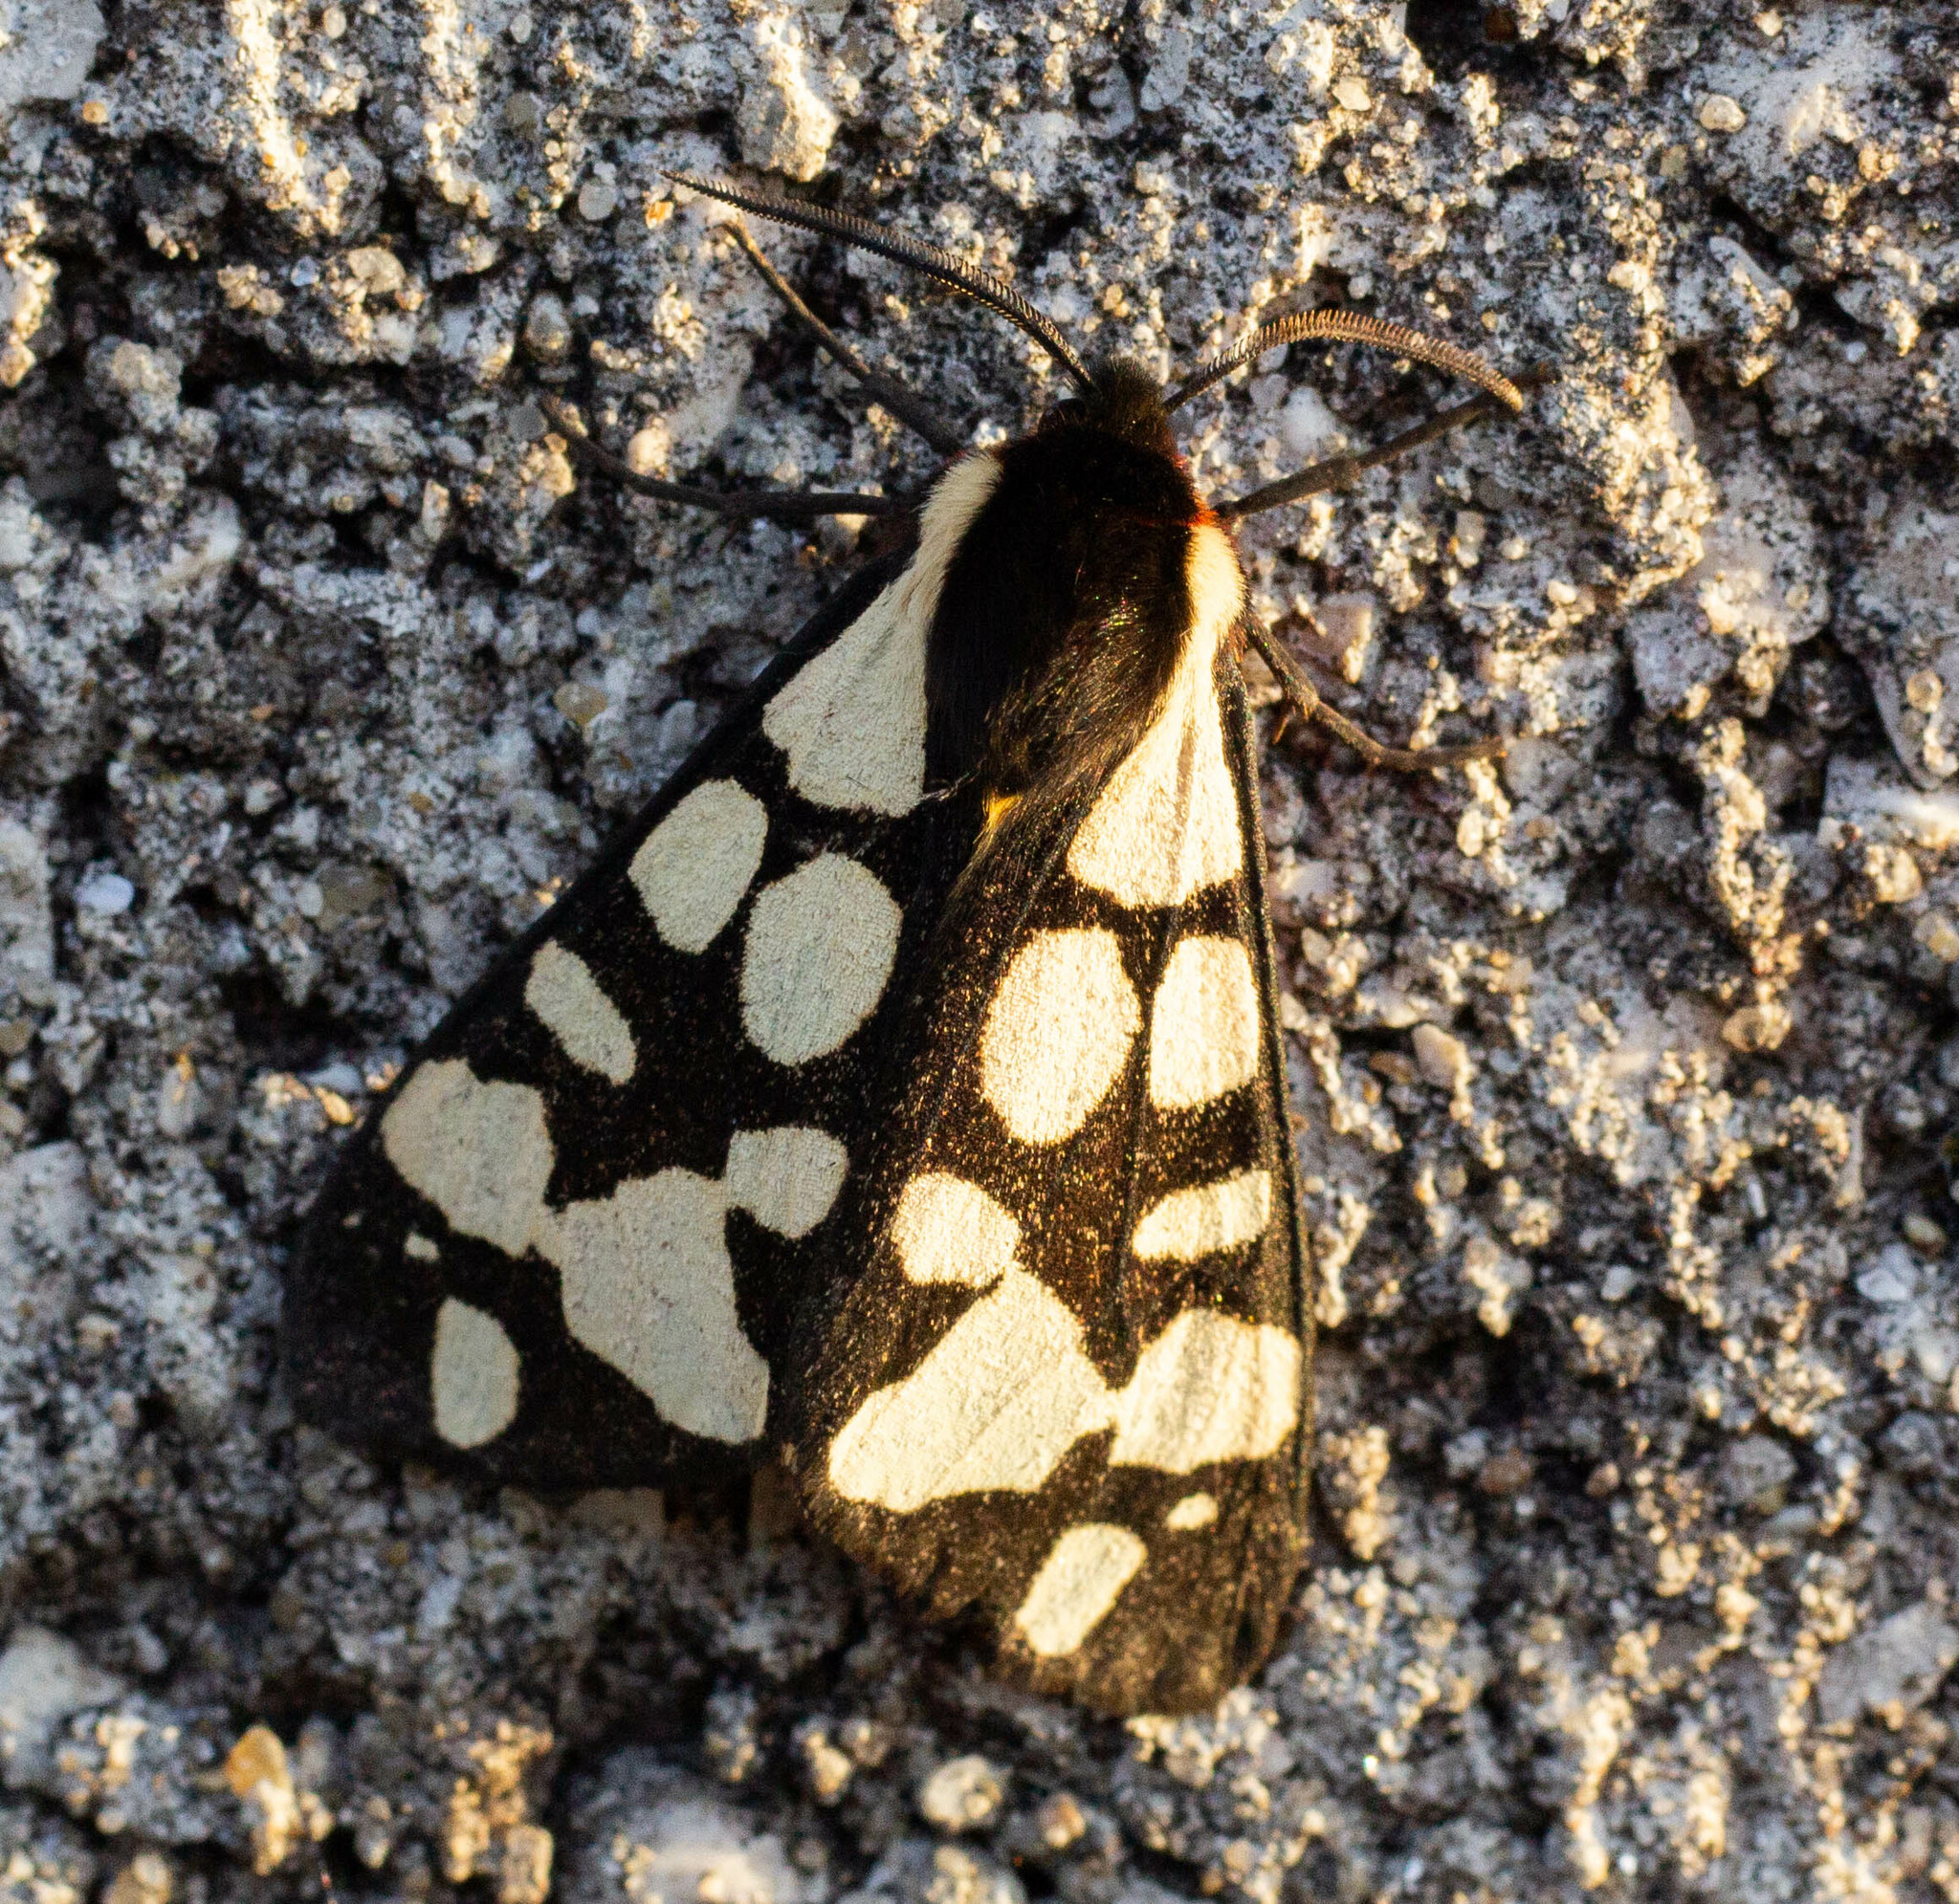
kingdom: Animalia
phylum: Arthropoda
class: Insecta
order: Lepidoptera
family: Erebidae
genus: Epicallia
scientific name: Epicallia villica
